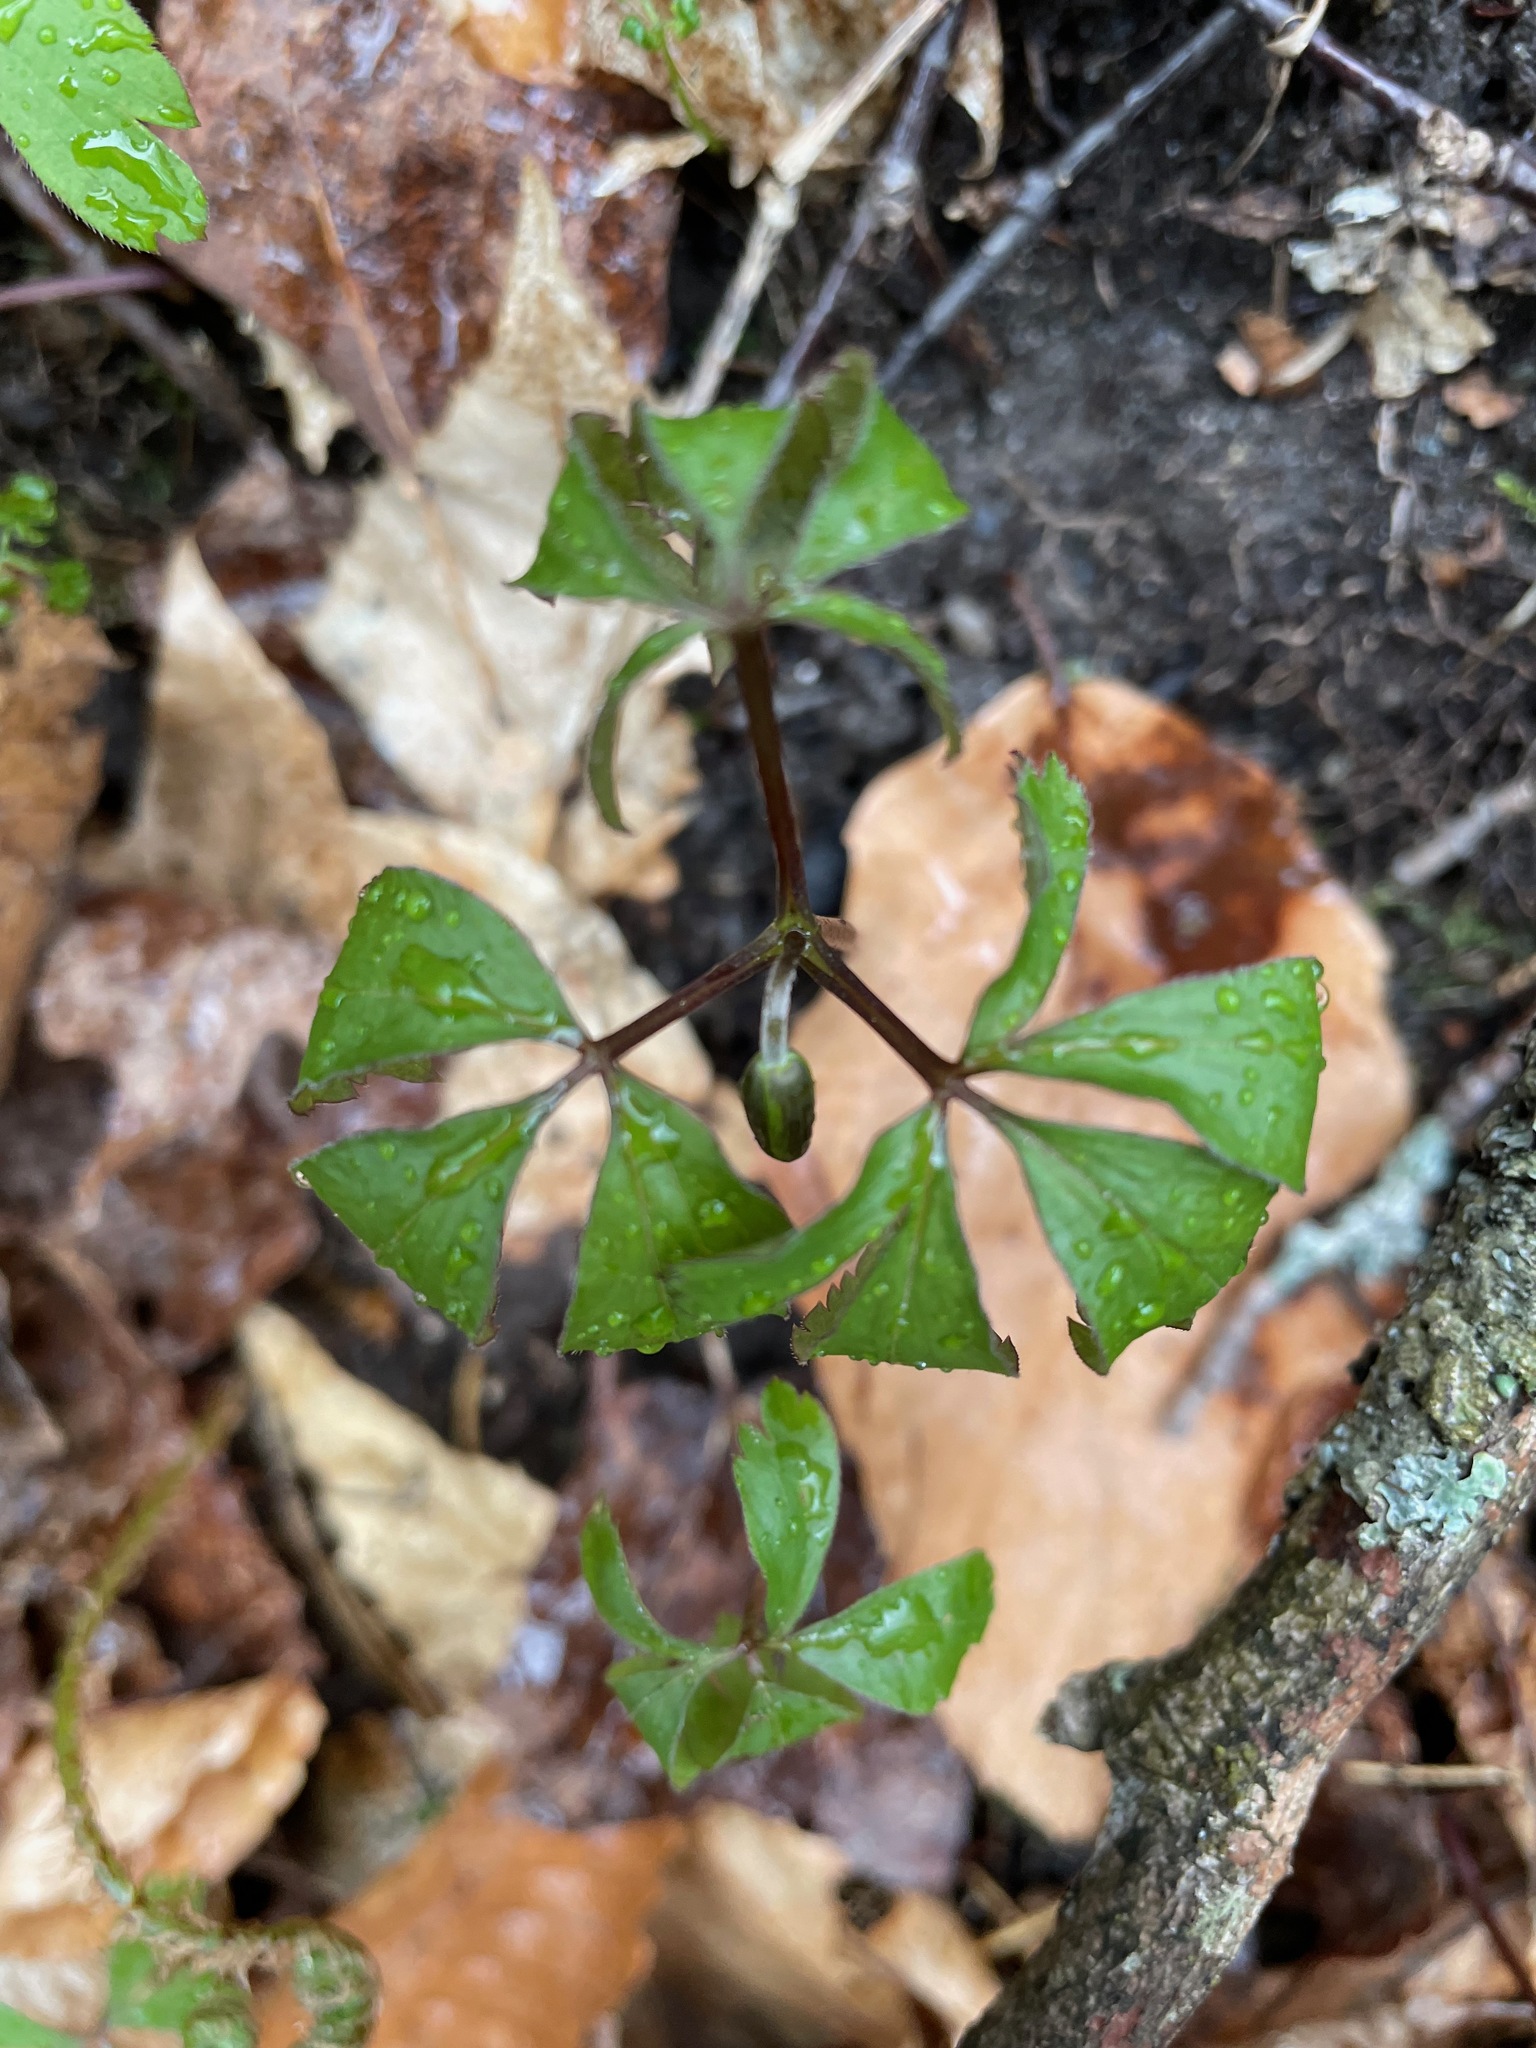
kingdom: Plantae
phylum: Tracheophyta
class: Magnoliopsida
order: Ranunculales
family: Ranunculaceae
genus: Anemone
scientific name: Anemone quinquefolia
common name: Wood anemone
